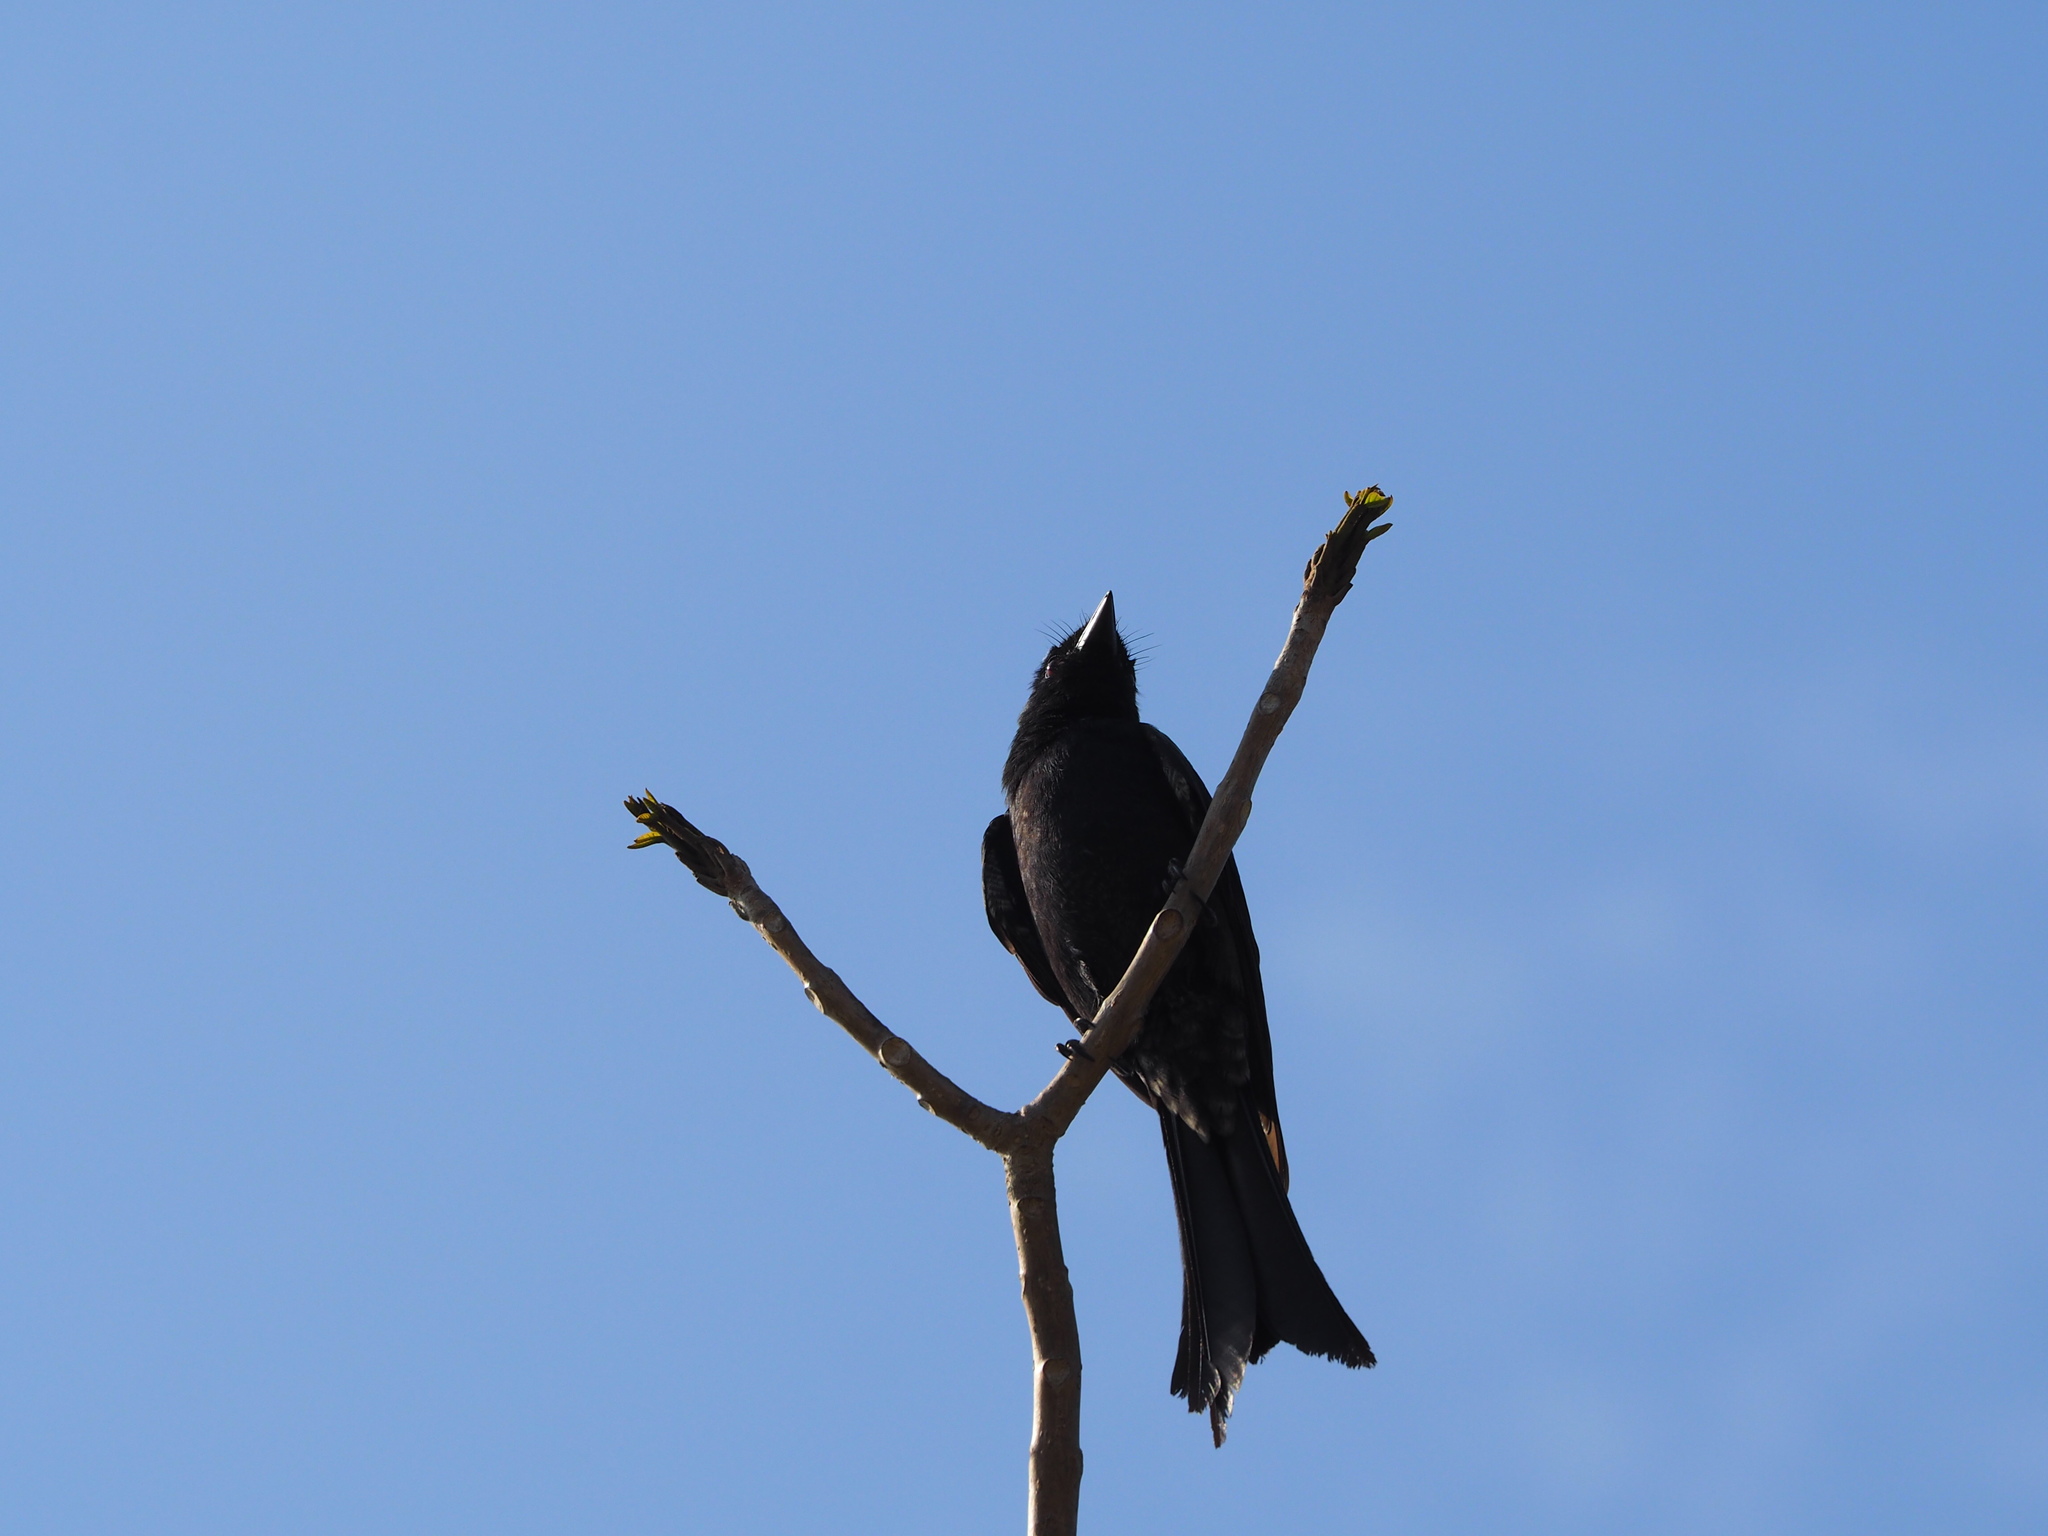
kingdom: Animalia
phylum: Chordata
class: Aves
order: Passeriformes
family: Dicruridae
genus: Dicrurus
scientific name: Dicrurus macrocercus
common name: Black drongo
